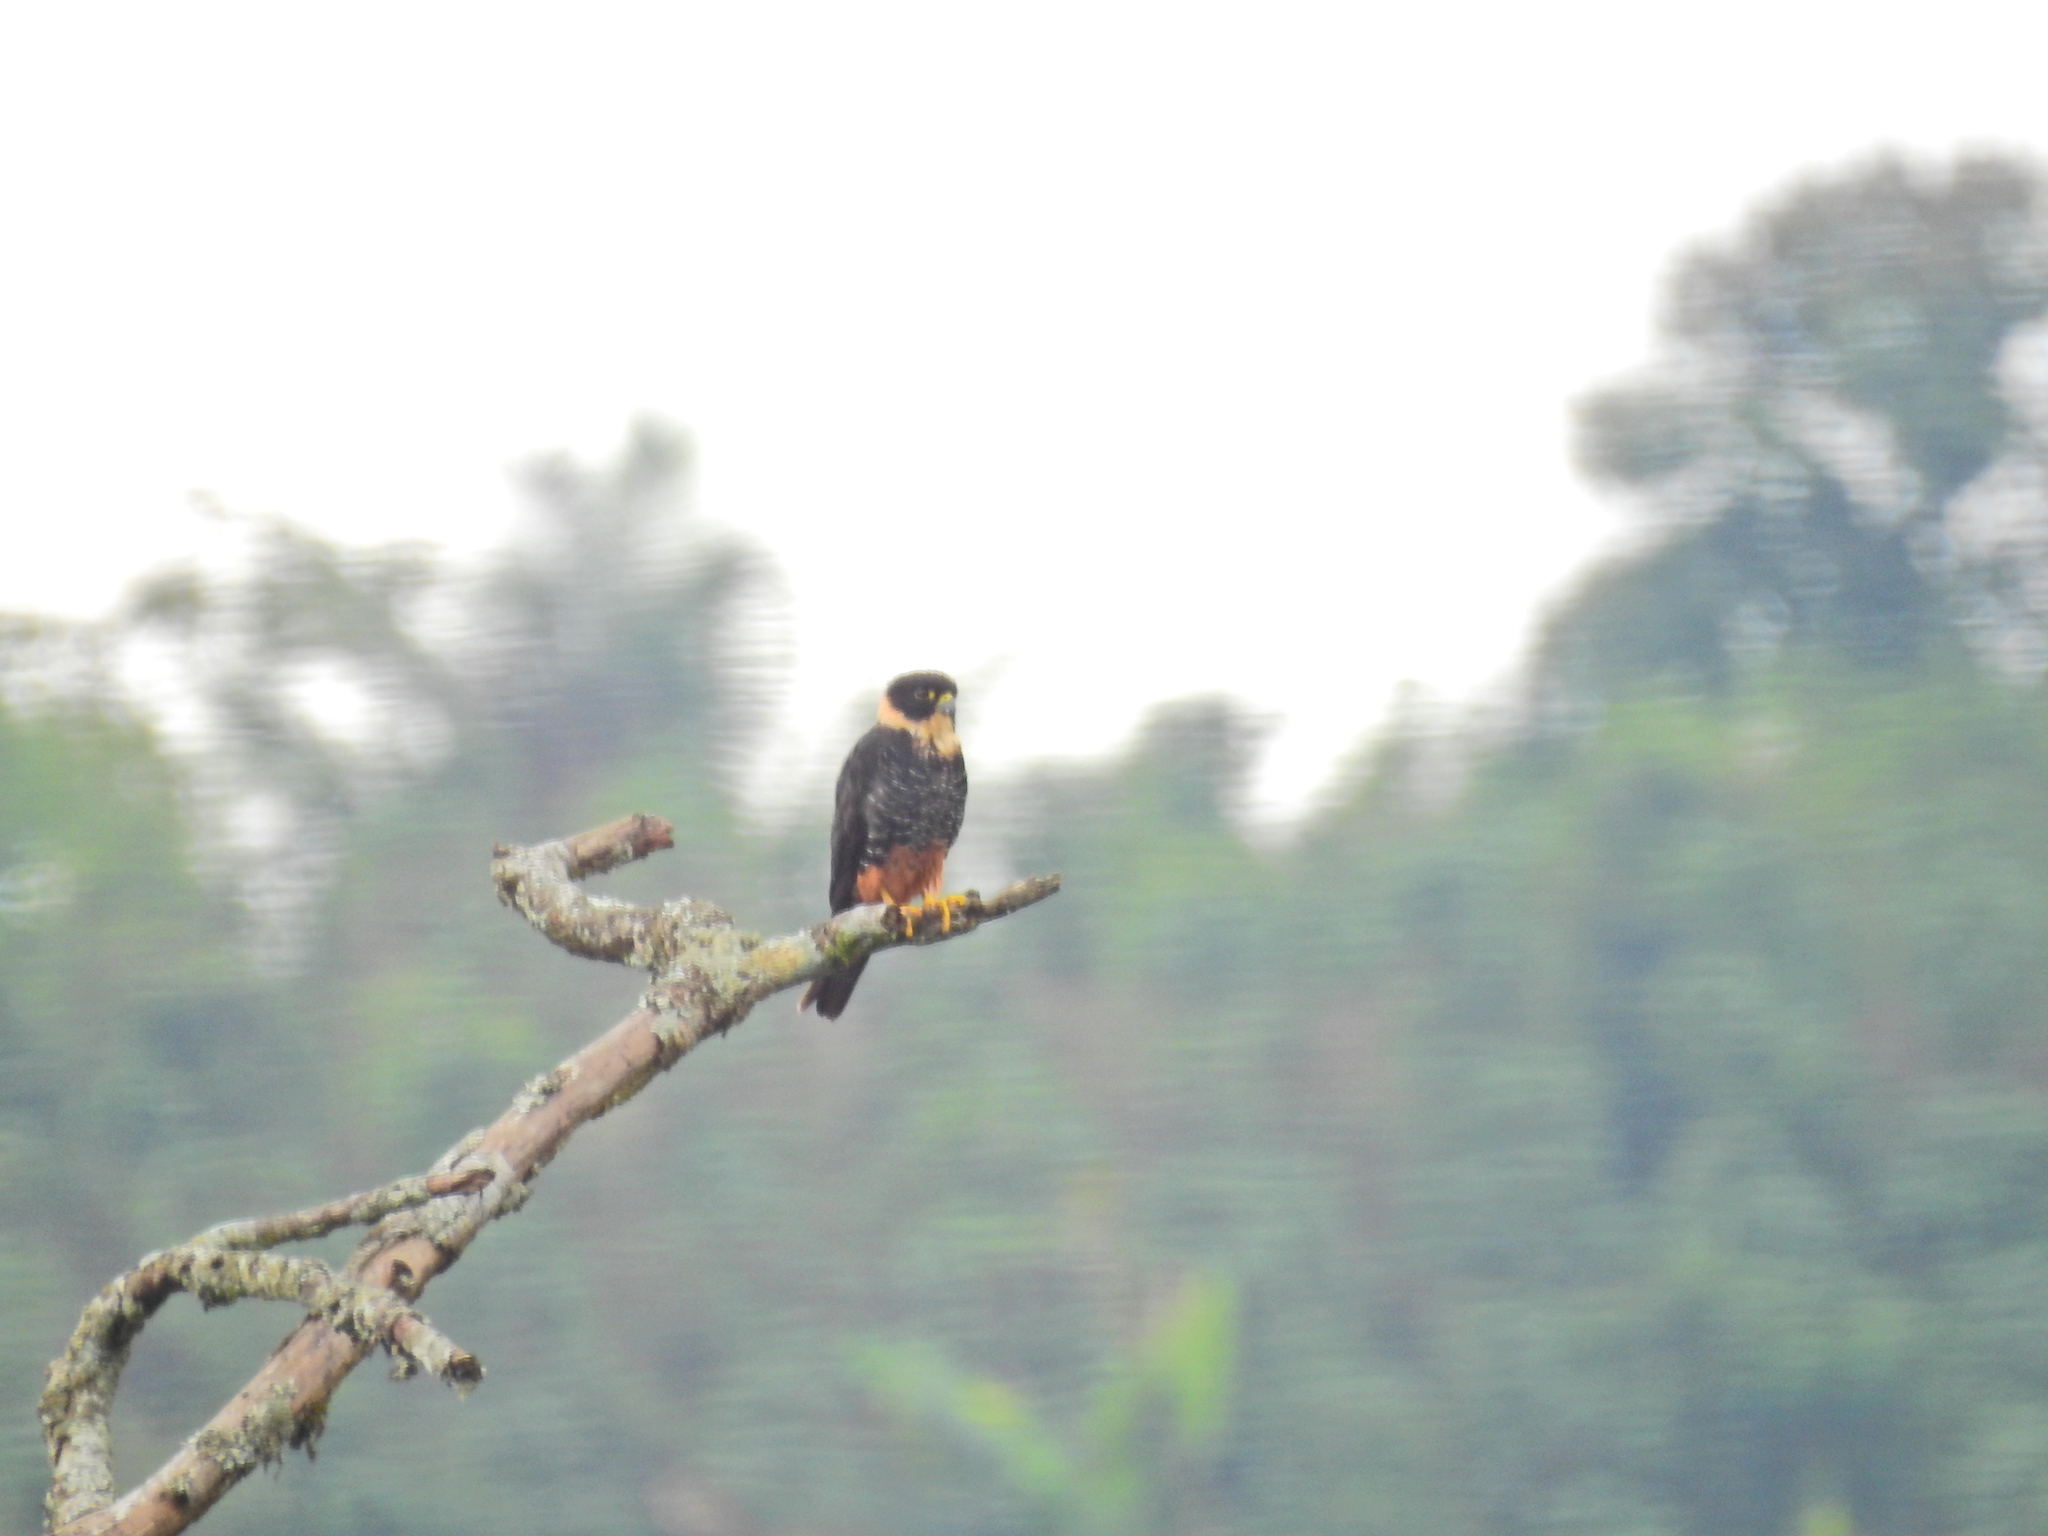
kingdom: Animalia
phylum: Chordata
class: Aves
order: Falconiformes
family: Falconidae
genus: Falco
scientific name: Falco rufigularis
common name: Bat falcon
